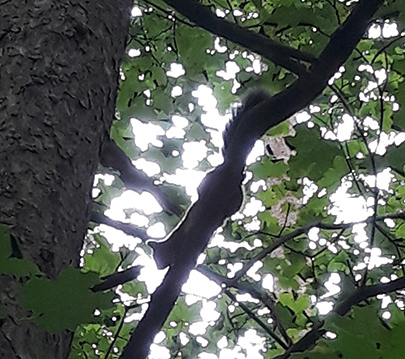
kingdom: Animalia
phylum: Chordata
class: Mammalia
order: Rodentia
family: Sciuridae
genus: Sciurus
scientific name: Sciurus vulgaris
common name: Eurasian red squirrel
